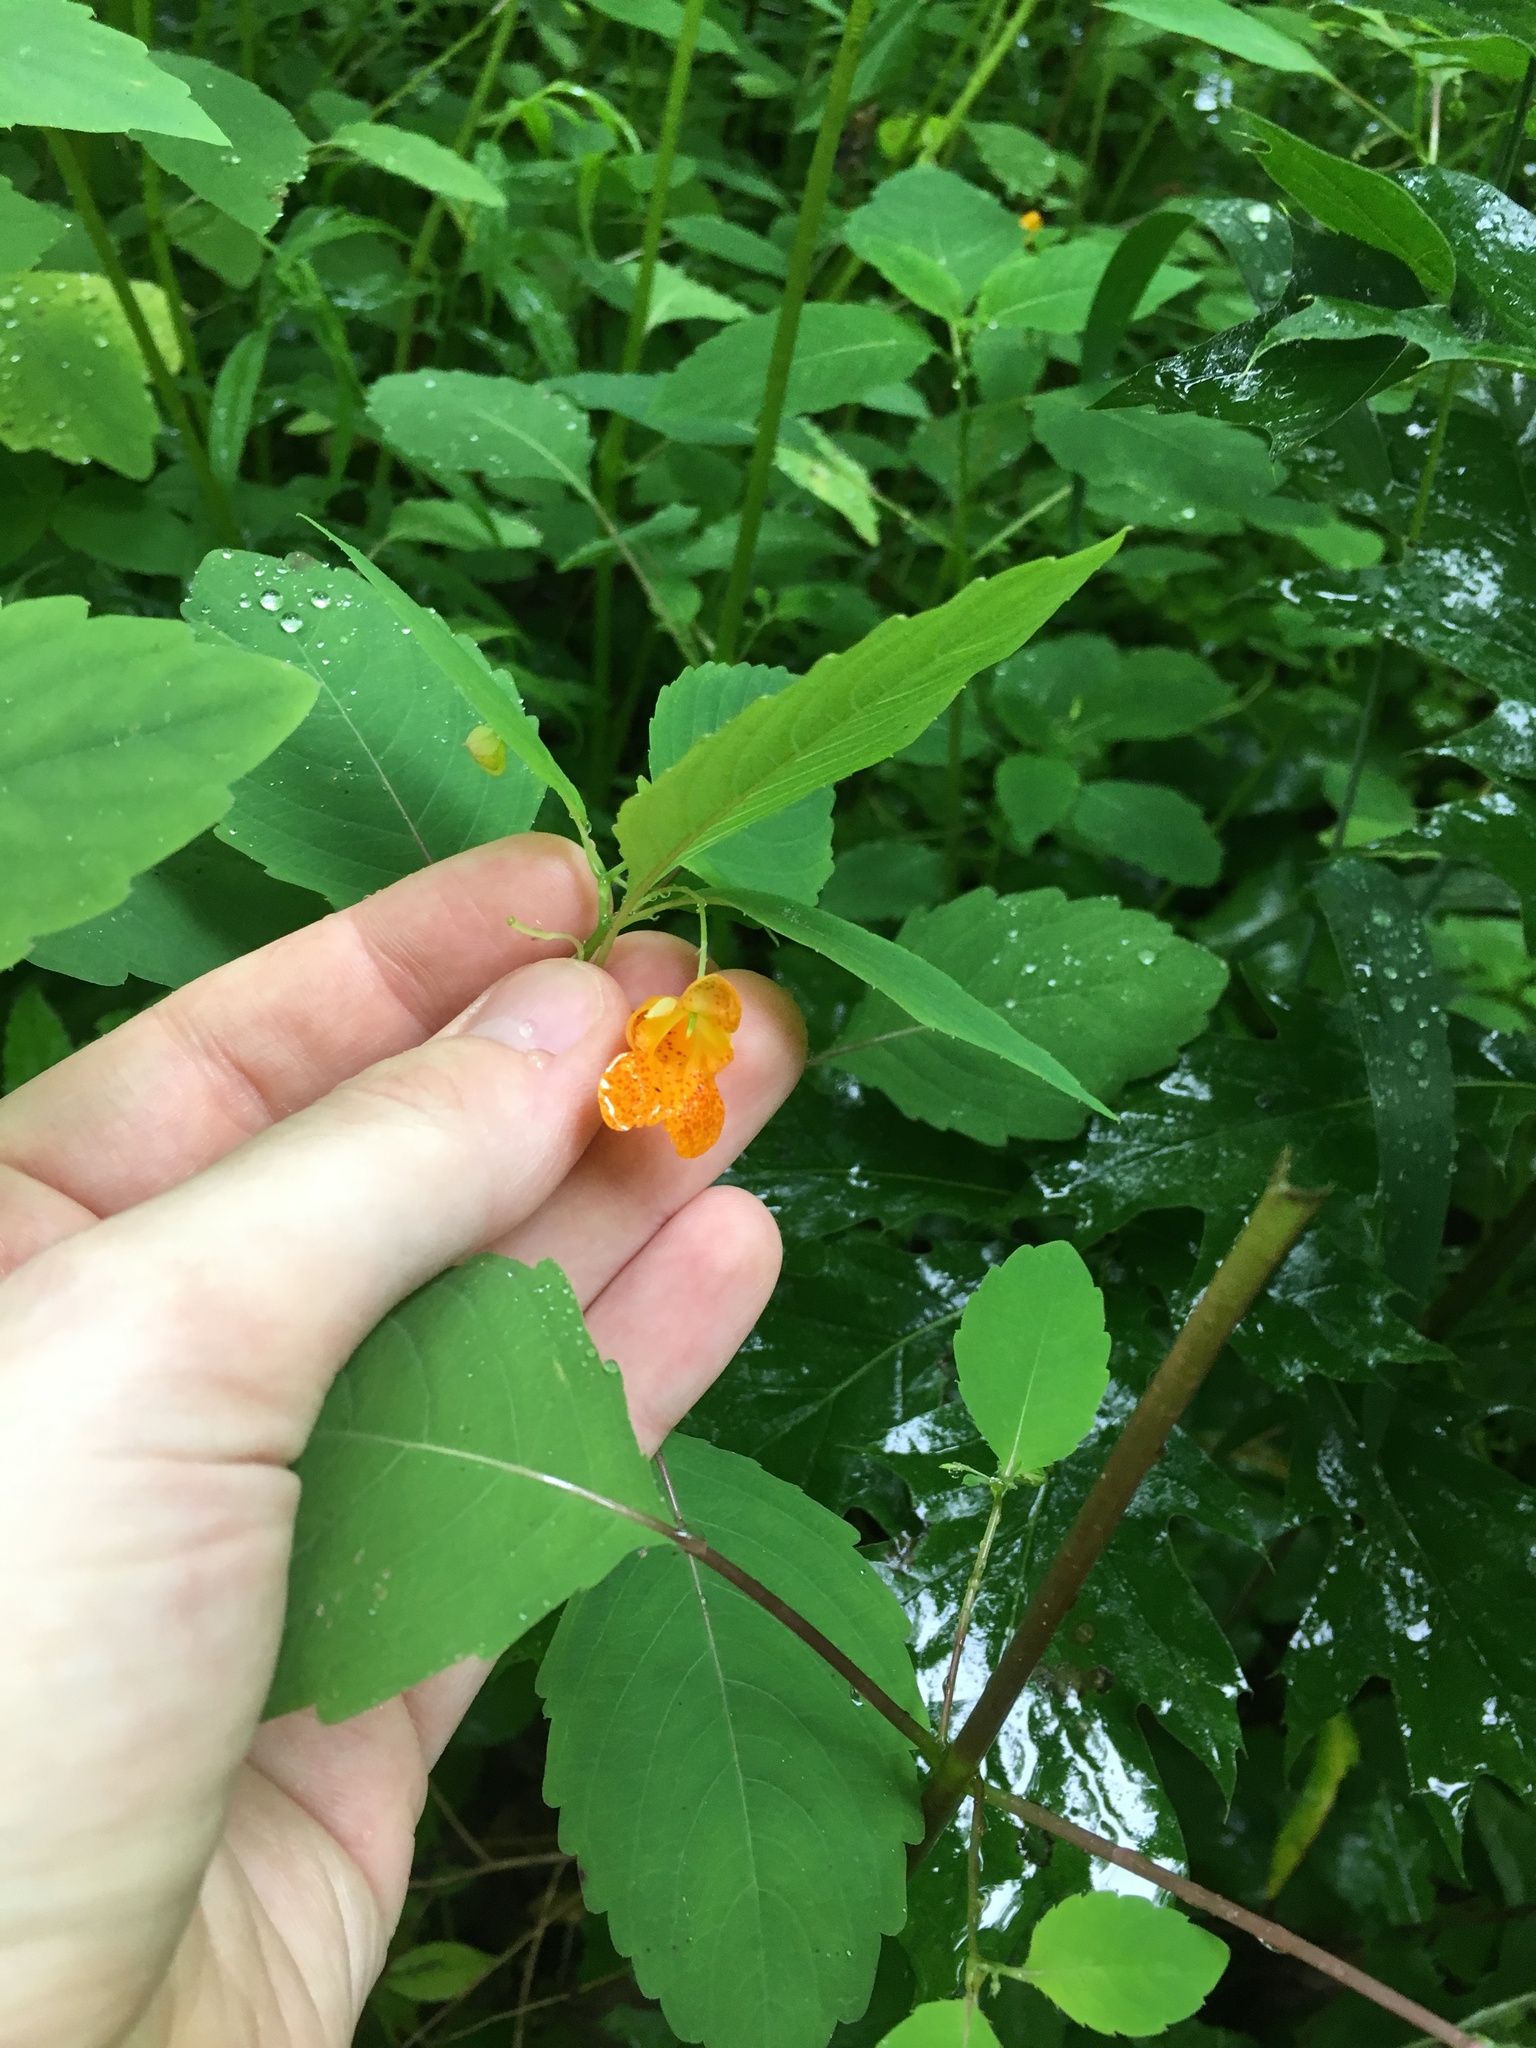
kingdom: Plantae
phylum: Tracheophyta
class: Magnoliopsida
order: Ericales
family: Balsaminaceae
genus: Impatiens
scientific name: Impatiens capensis
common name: Orange balsam
